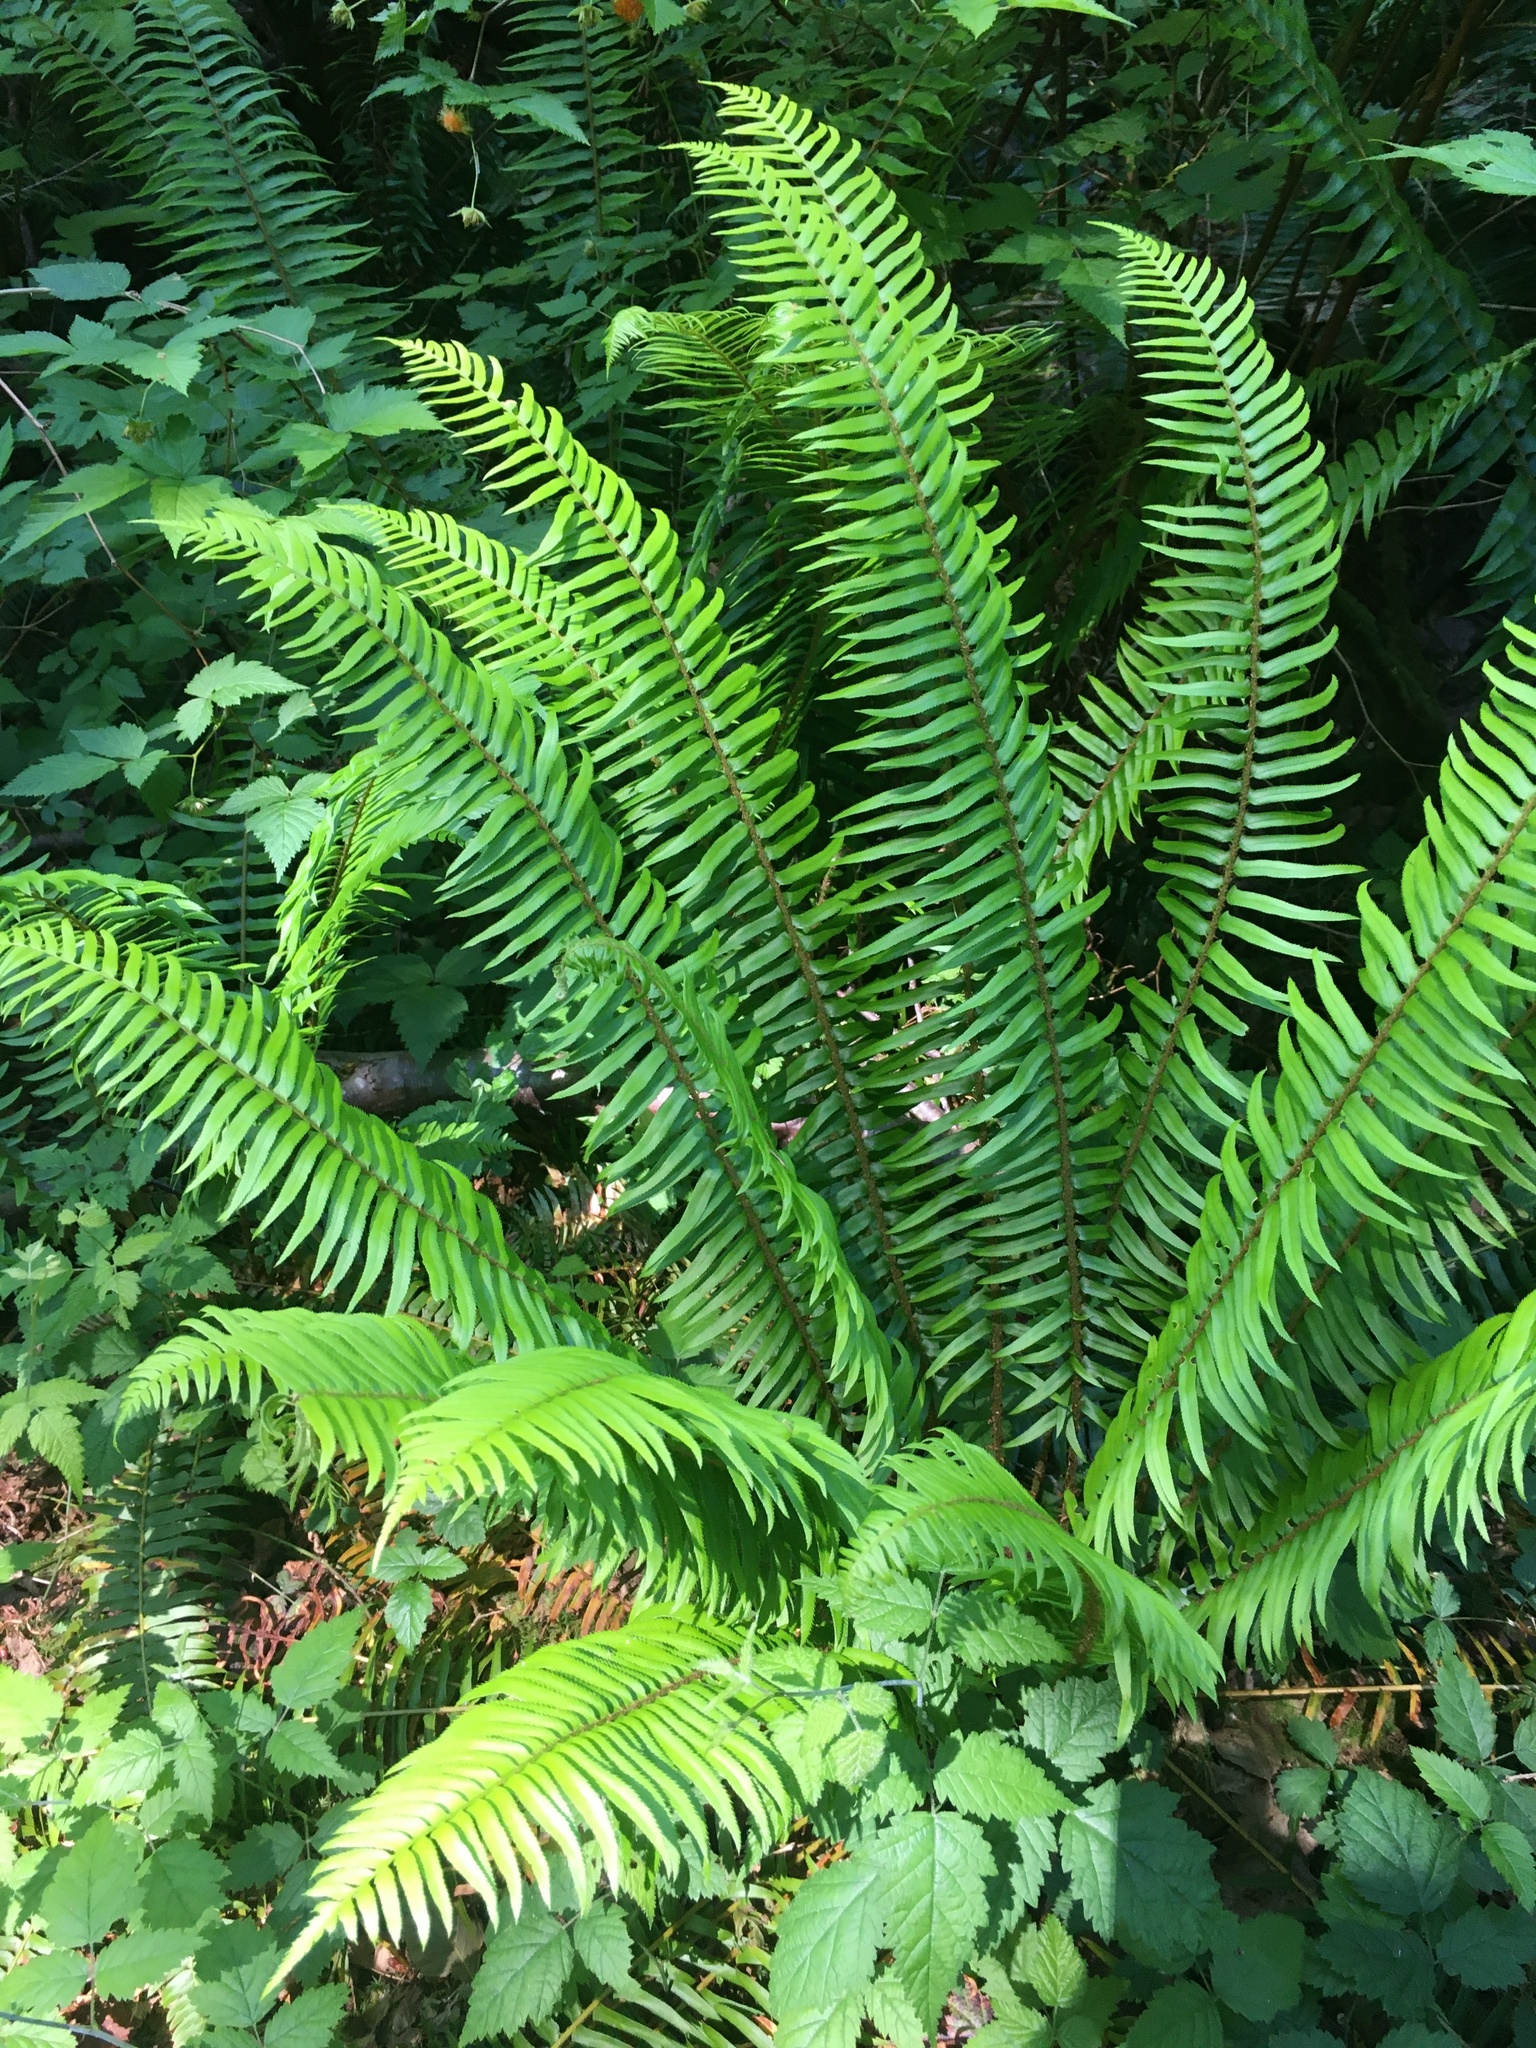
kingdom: Plantae
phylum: Tracheophyta
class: Polypodiopsida
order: Polypodiales
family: Dryopteridaceae
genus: Polystichum
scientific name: Polystichum munitum
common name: Western sword-fern
